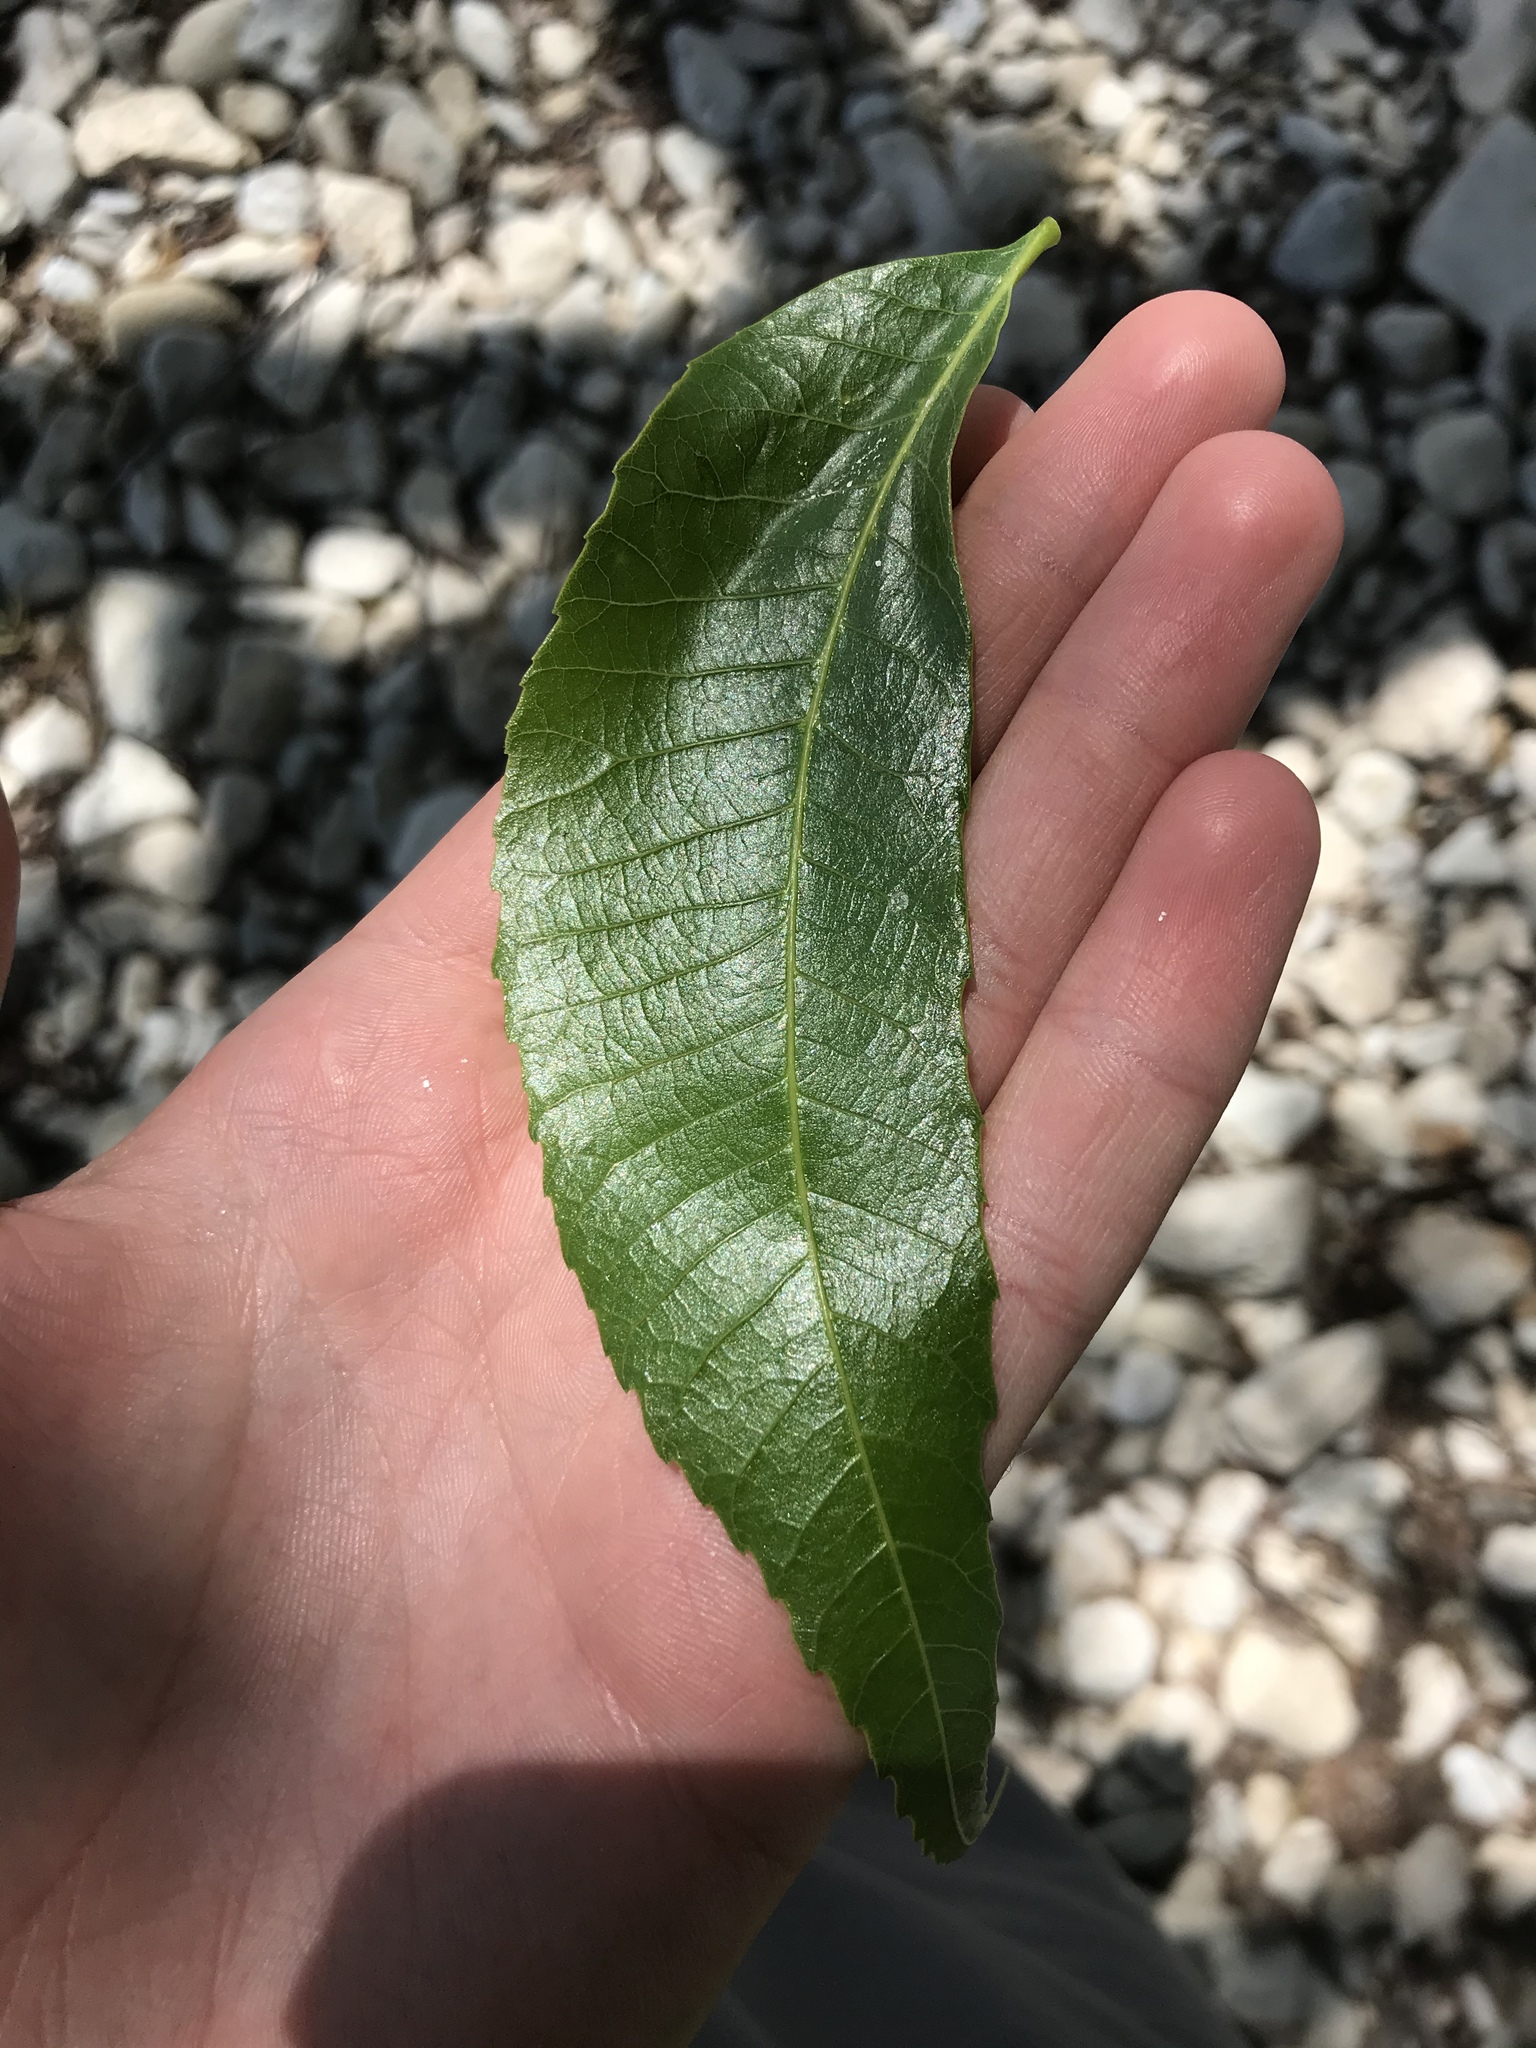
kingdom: Plantae
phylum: Tracheophyta
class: Magnoliopsida
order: Fagales
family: Juglandaceae
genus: Carya
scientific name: Carya illinoinensis
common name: Pecan
